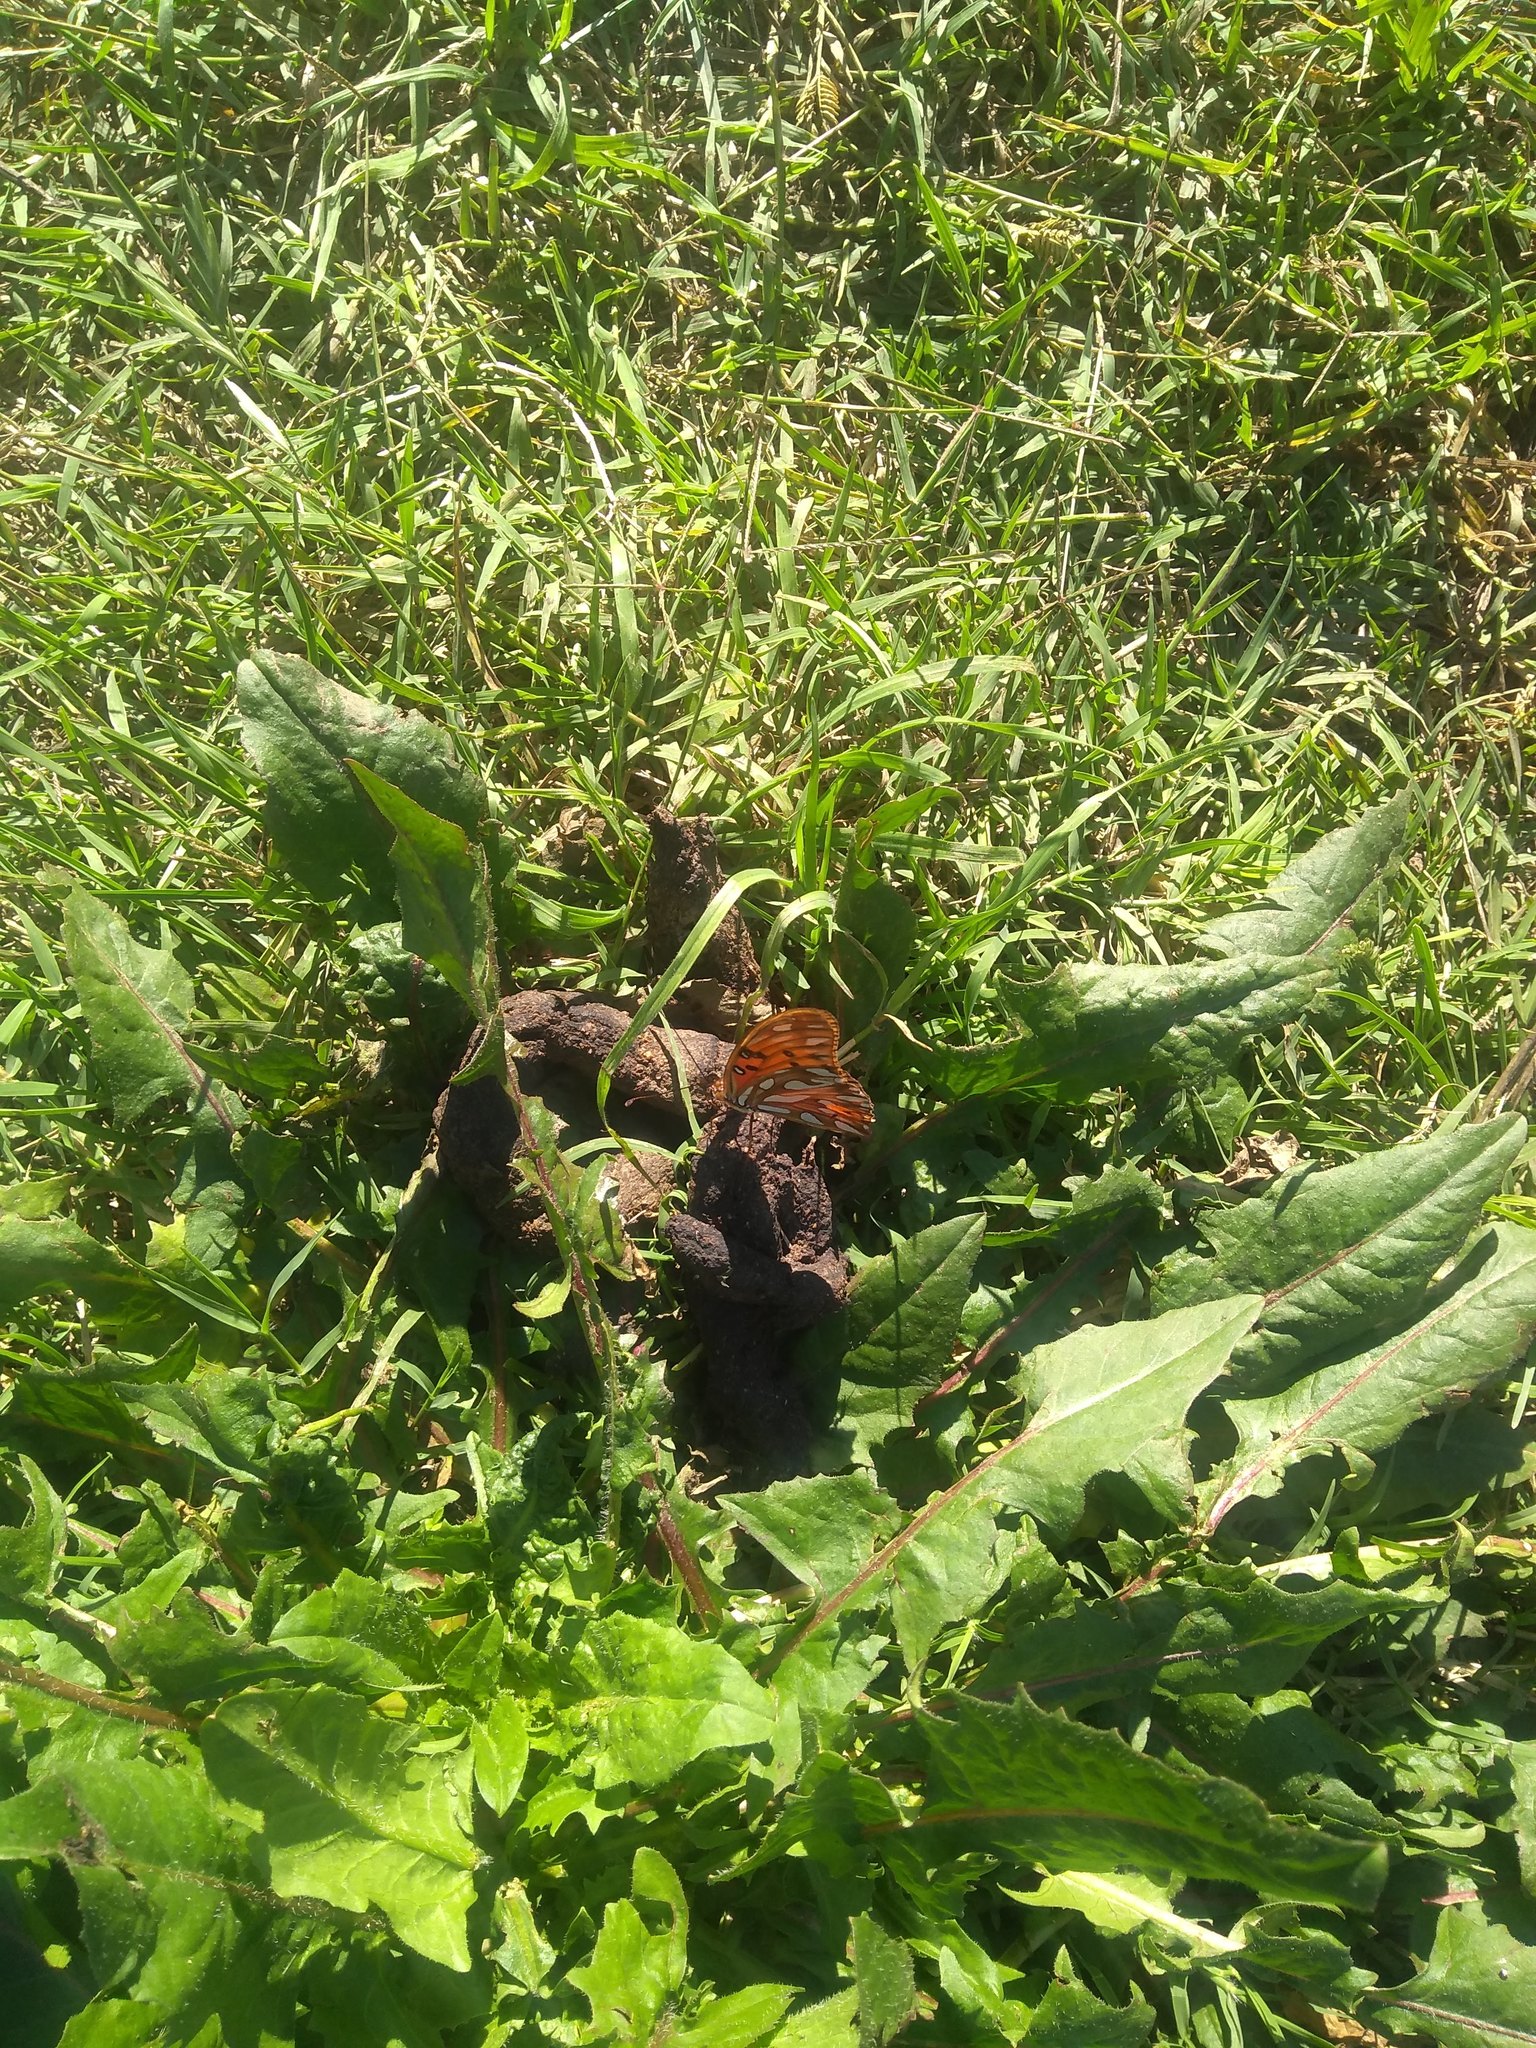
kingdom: Animalia
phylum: Arthropoda
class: Insecta
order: Lepidoptera
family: Nymphalidae
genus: Dione
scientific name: Dione vanillae
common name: Gulf fritillary
